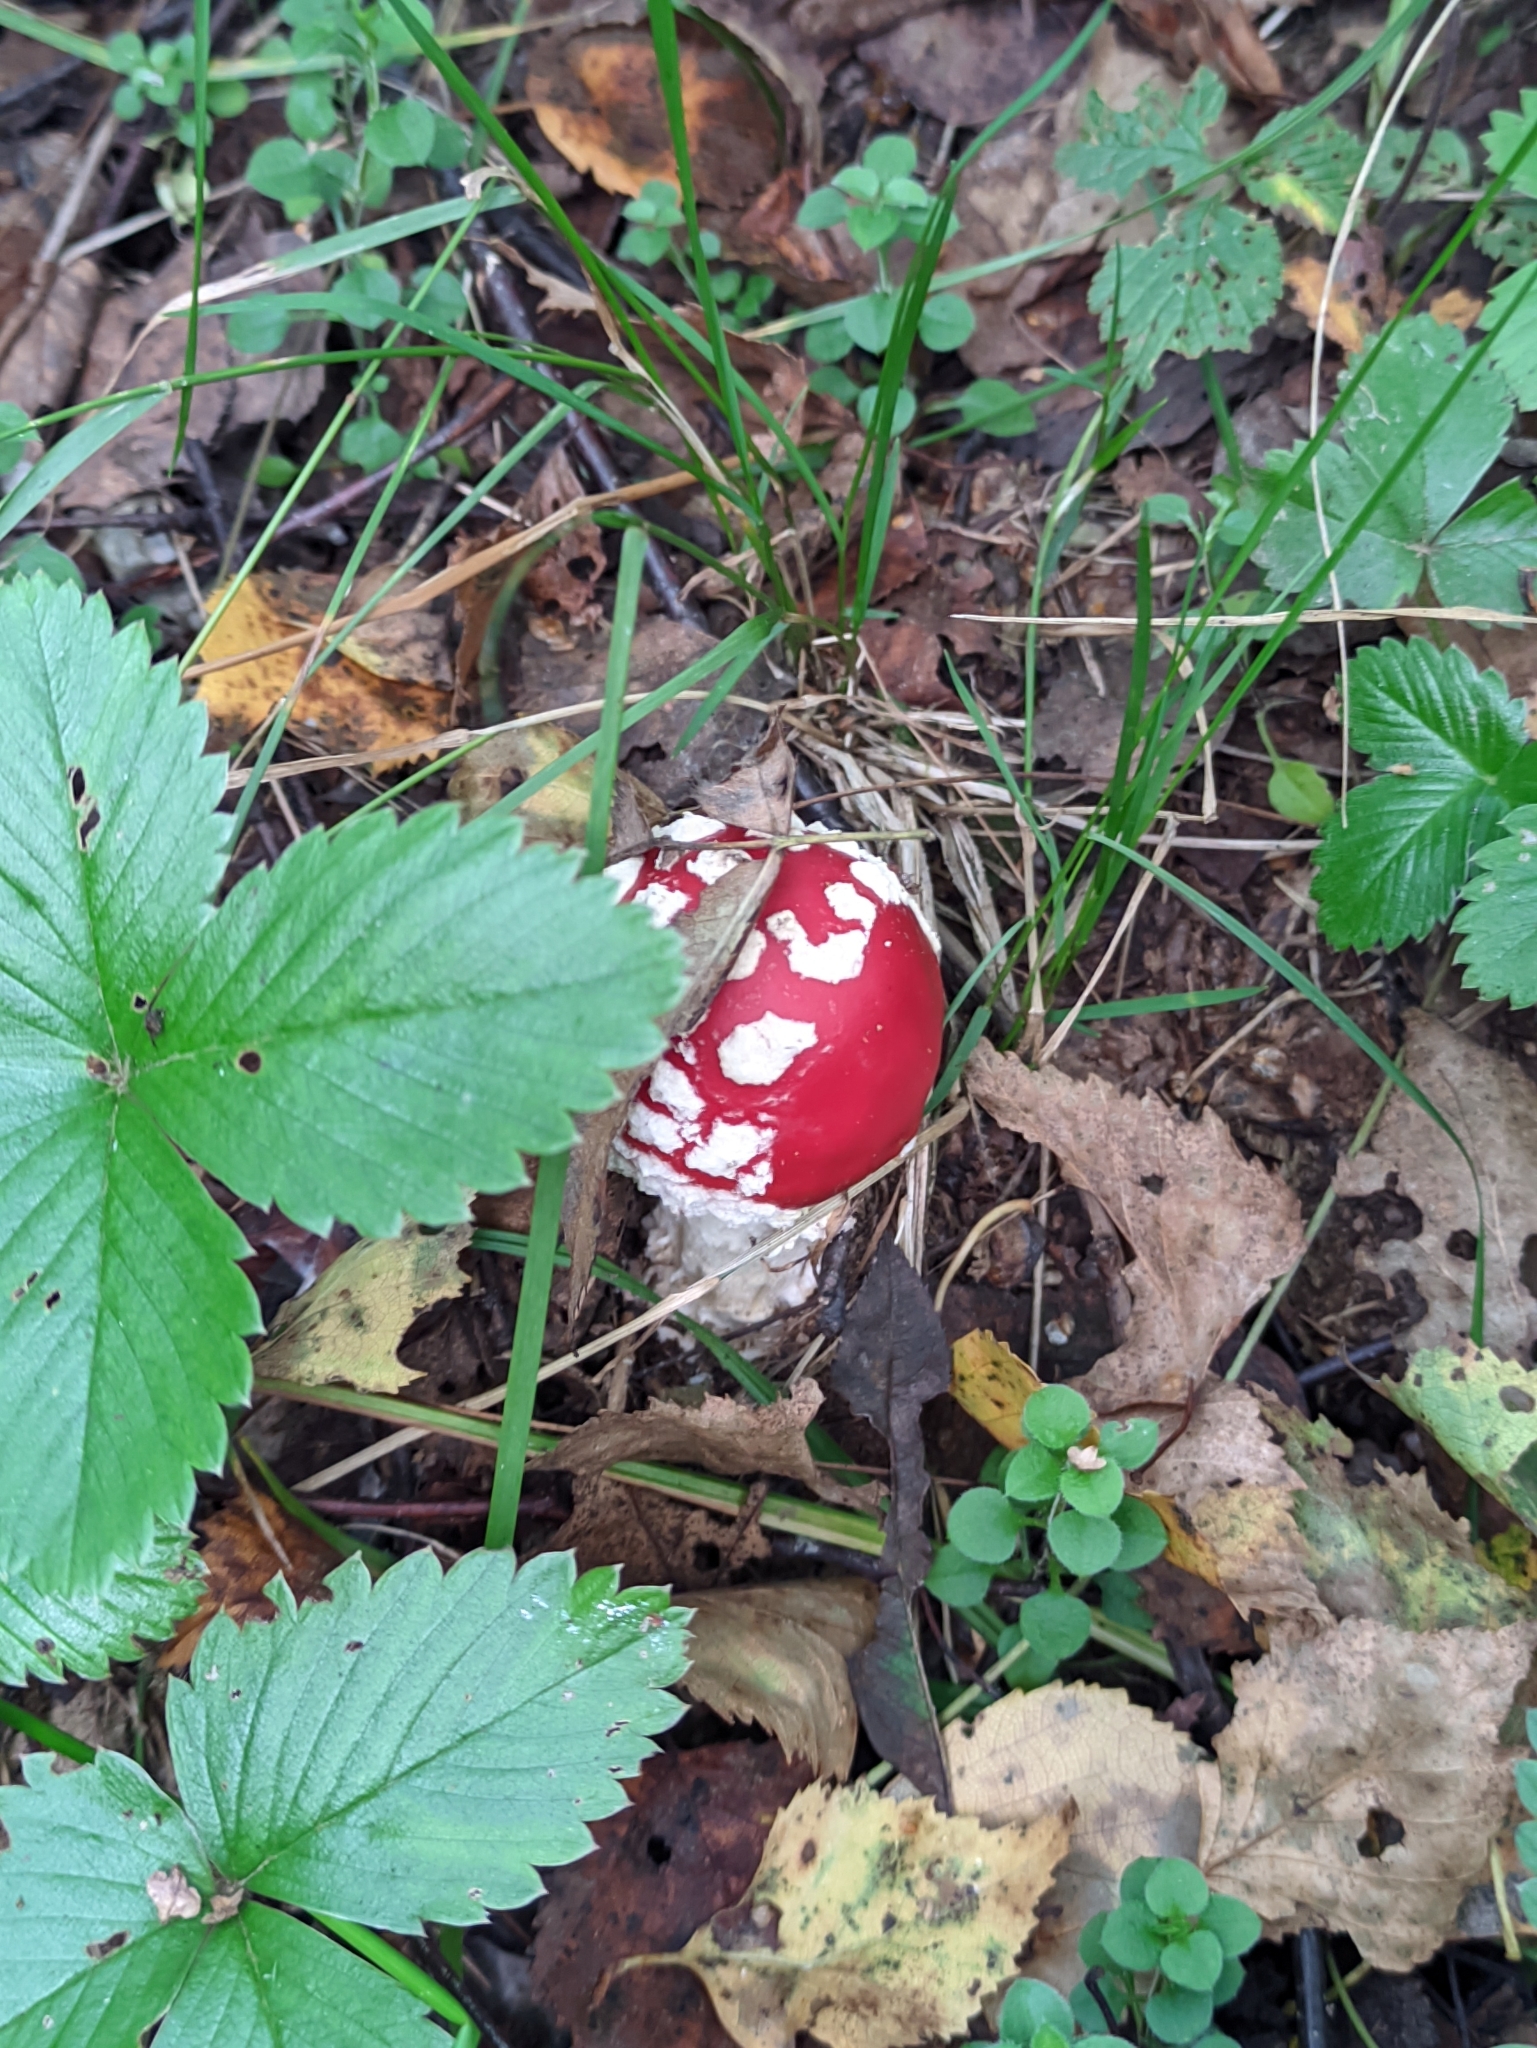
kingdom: Fungi
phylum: Basidiomycota
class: Agaricomycetes
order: Agaricales
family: Amanitaceae
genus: Amanita
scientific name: Amanita muscaria
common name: Fly agaric
